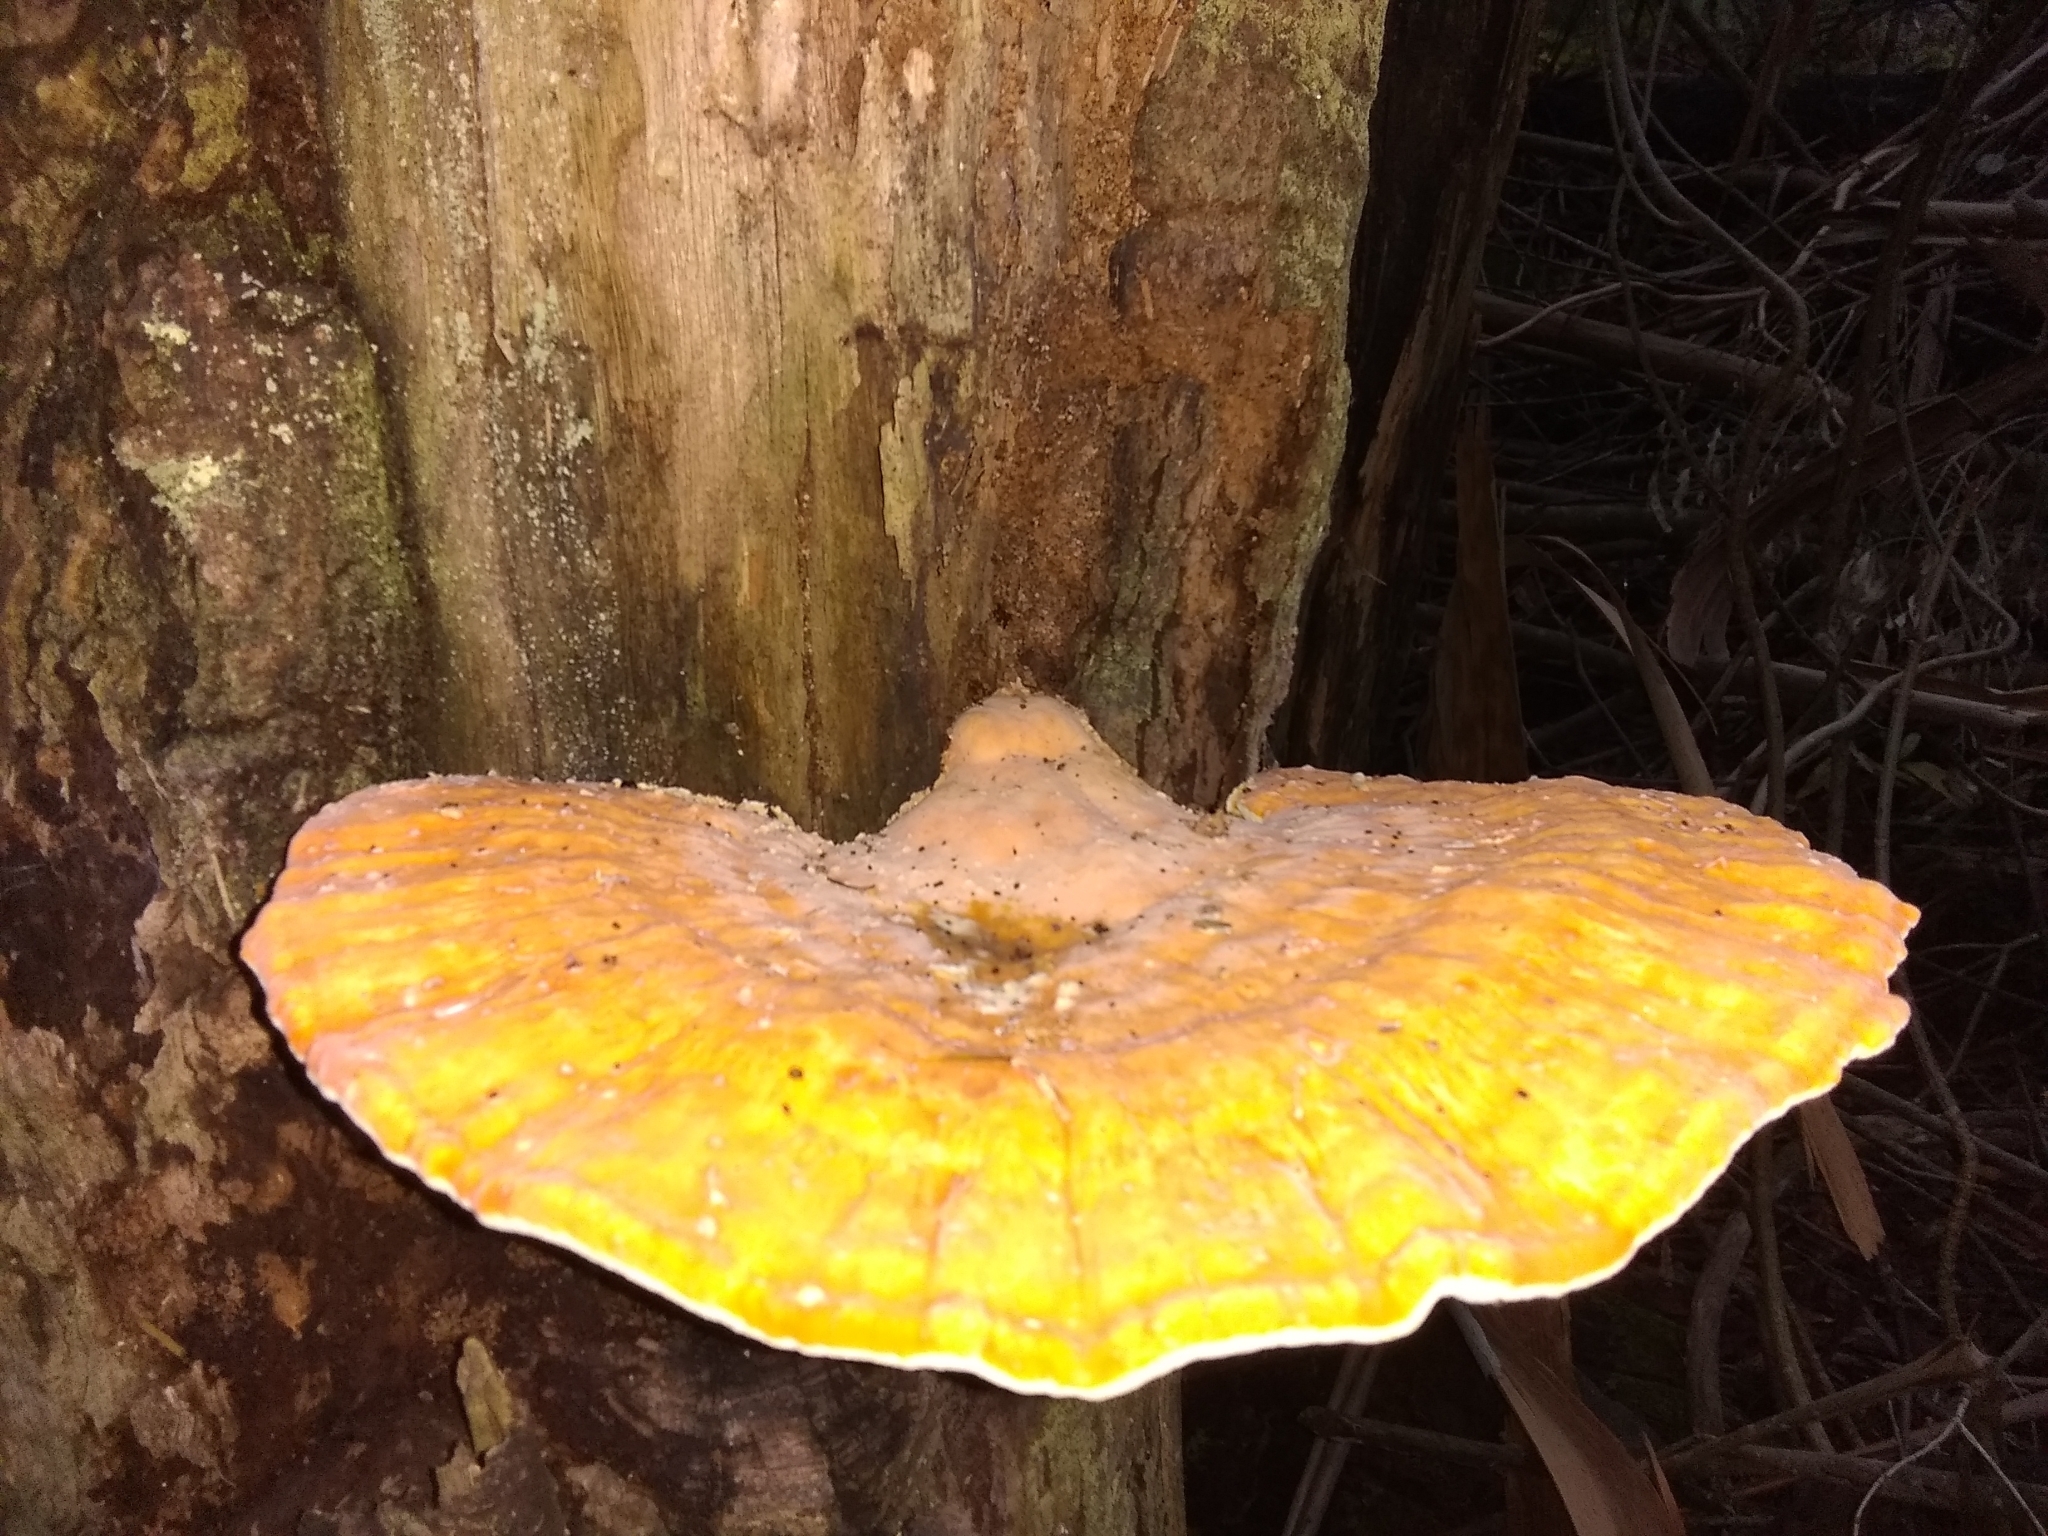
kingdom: Fungi
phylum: Basidiomycota
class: Agaricomycetes
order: Polyporales
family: Laetiporaceae
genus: Laetiporus
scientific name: Laetiporus gilbertsonii
